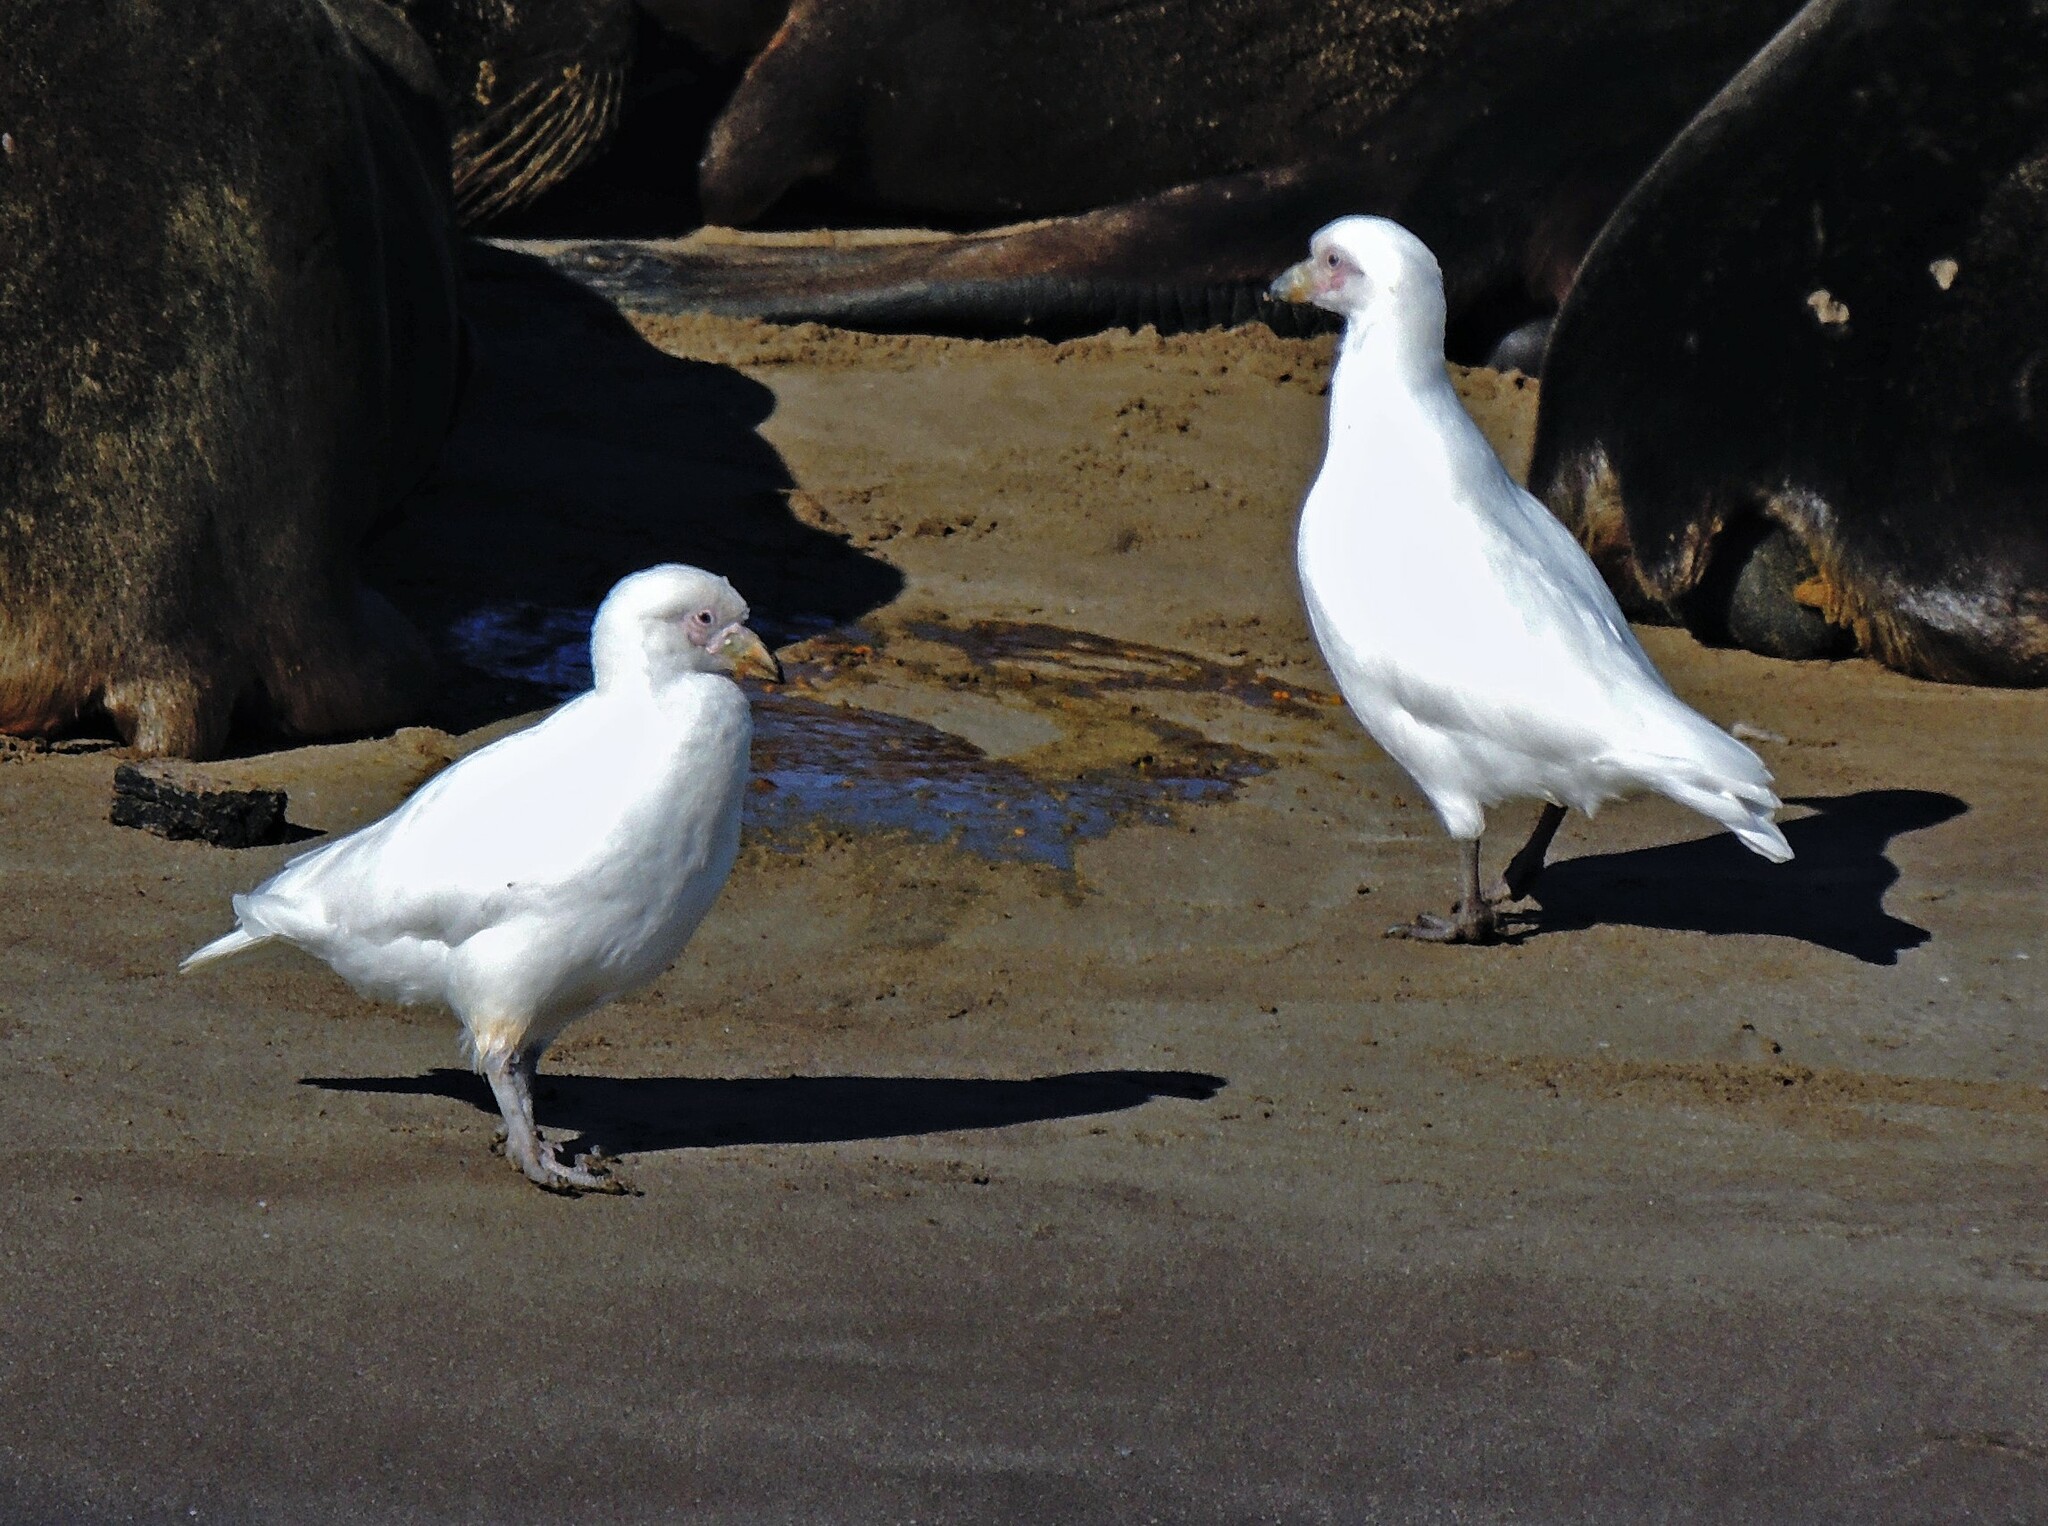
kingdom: Animalia
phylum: Chordata
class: Aves
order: Charadriiformes
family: Chionidae
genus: Chionis
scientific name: Chionis albus
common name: Snowy sheathbill
